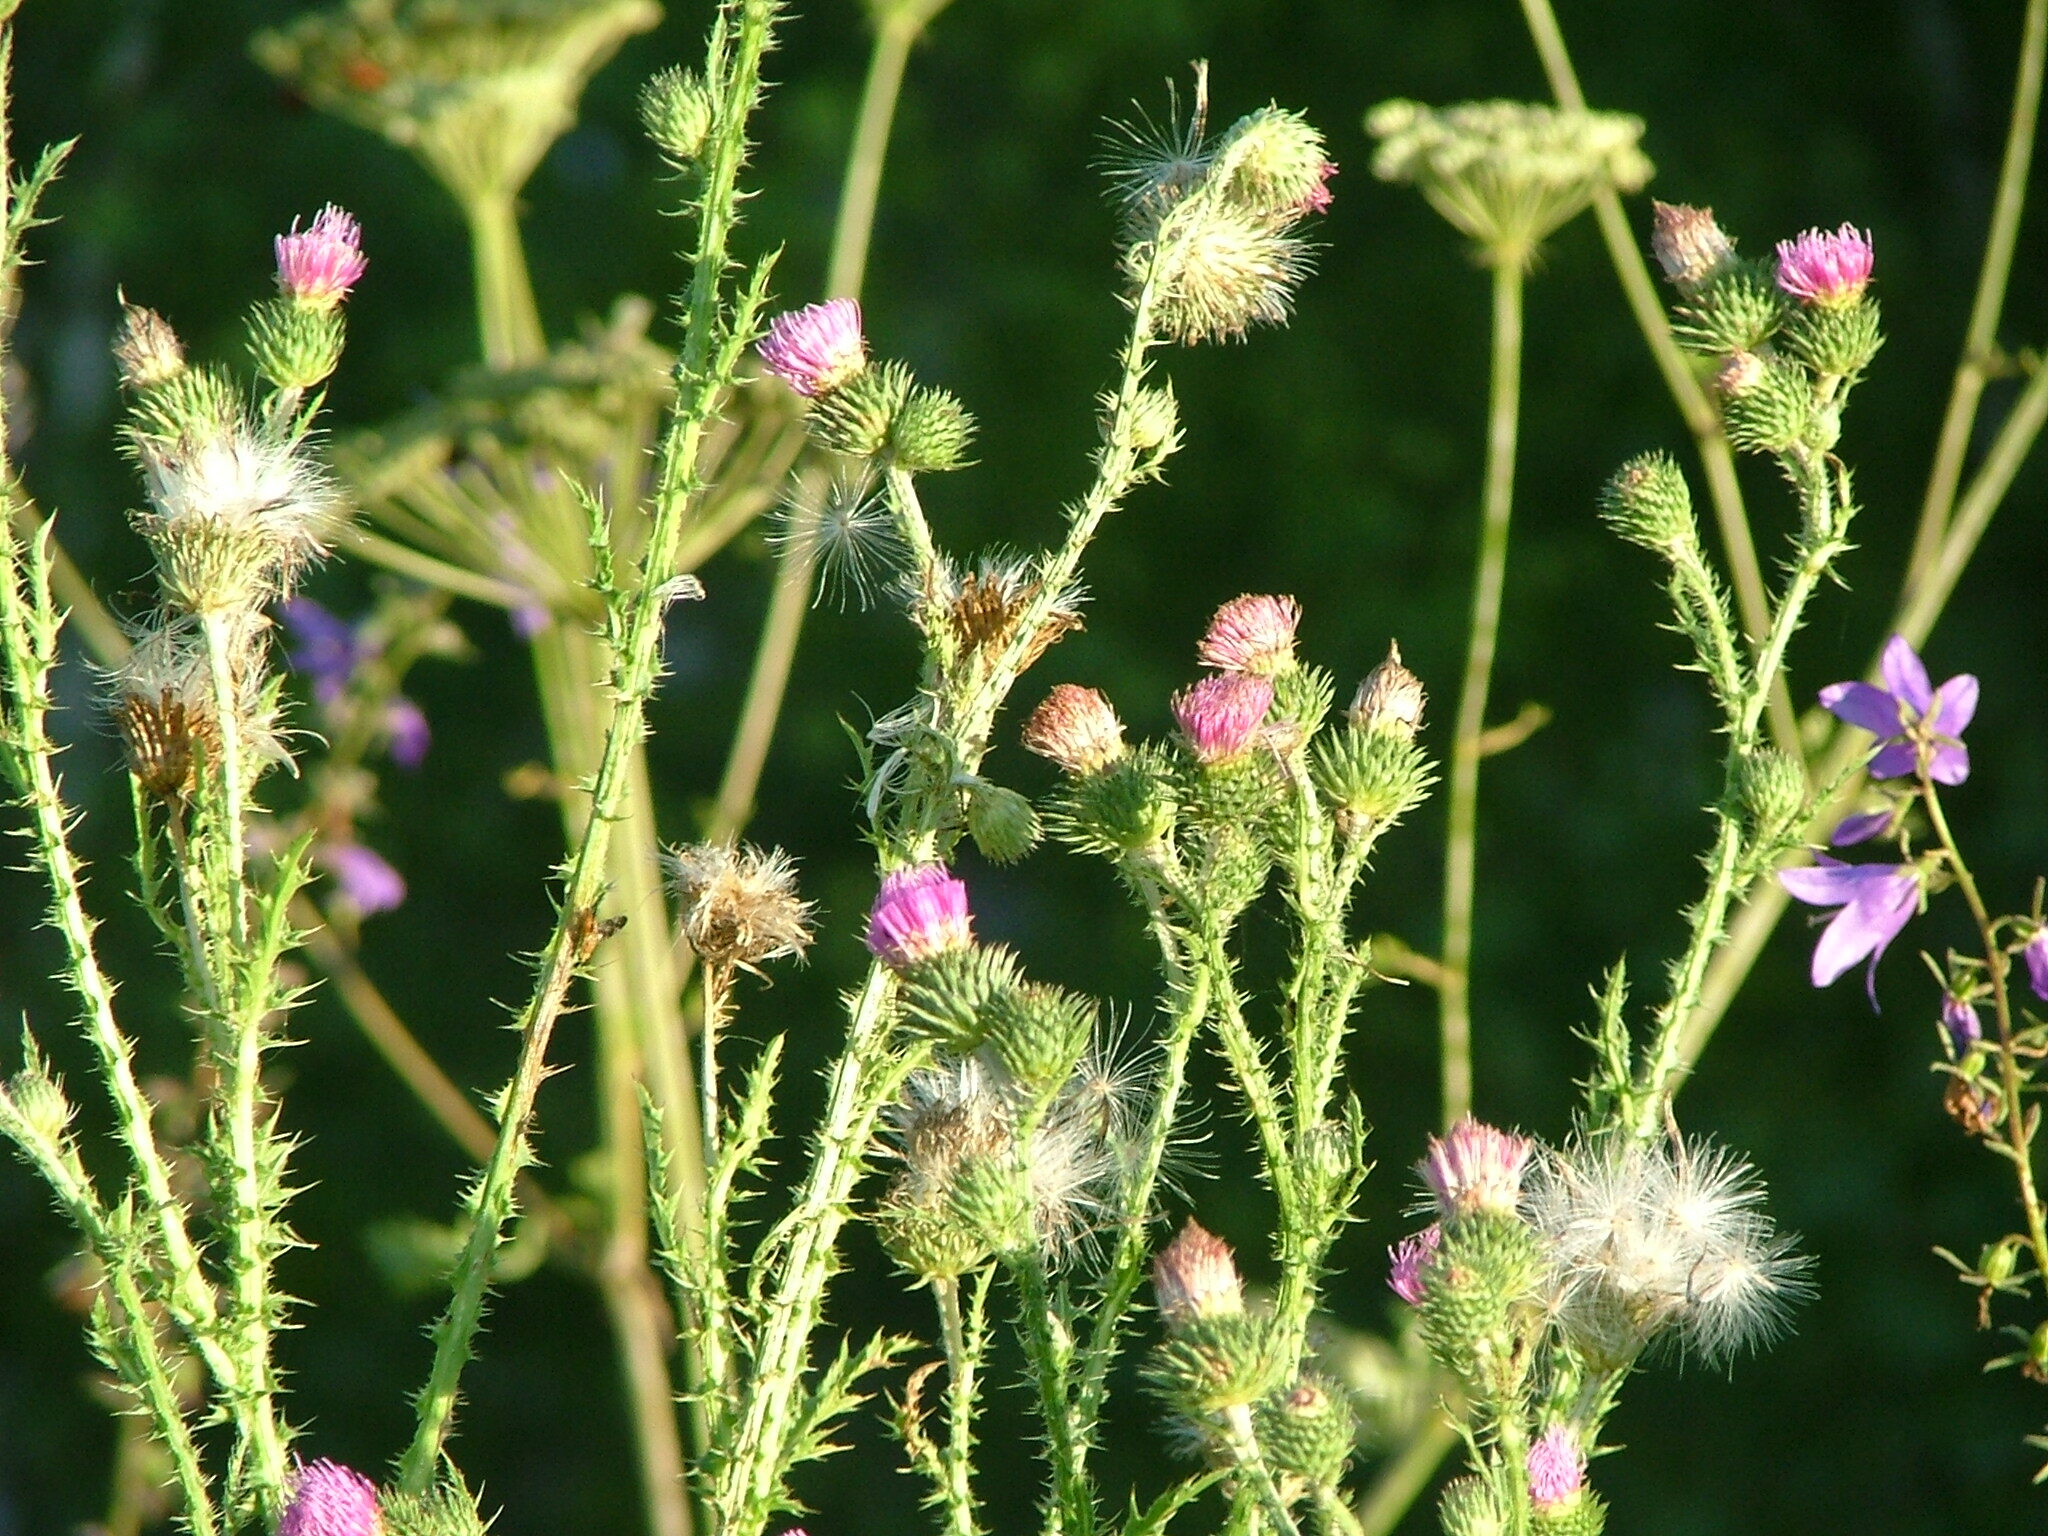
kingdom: Plantae
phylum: Tracheophyta
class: Magnoliopsida
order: Asterales
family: Asteraceae
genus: Carduus
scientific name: Carduus acanthoides
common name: Plumeless thistle
